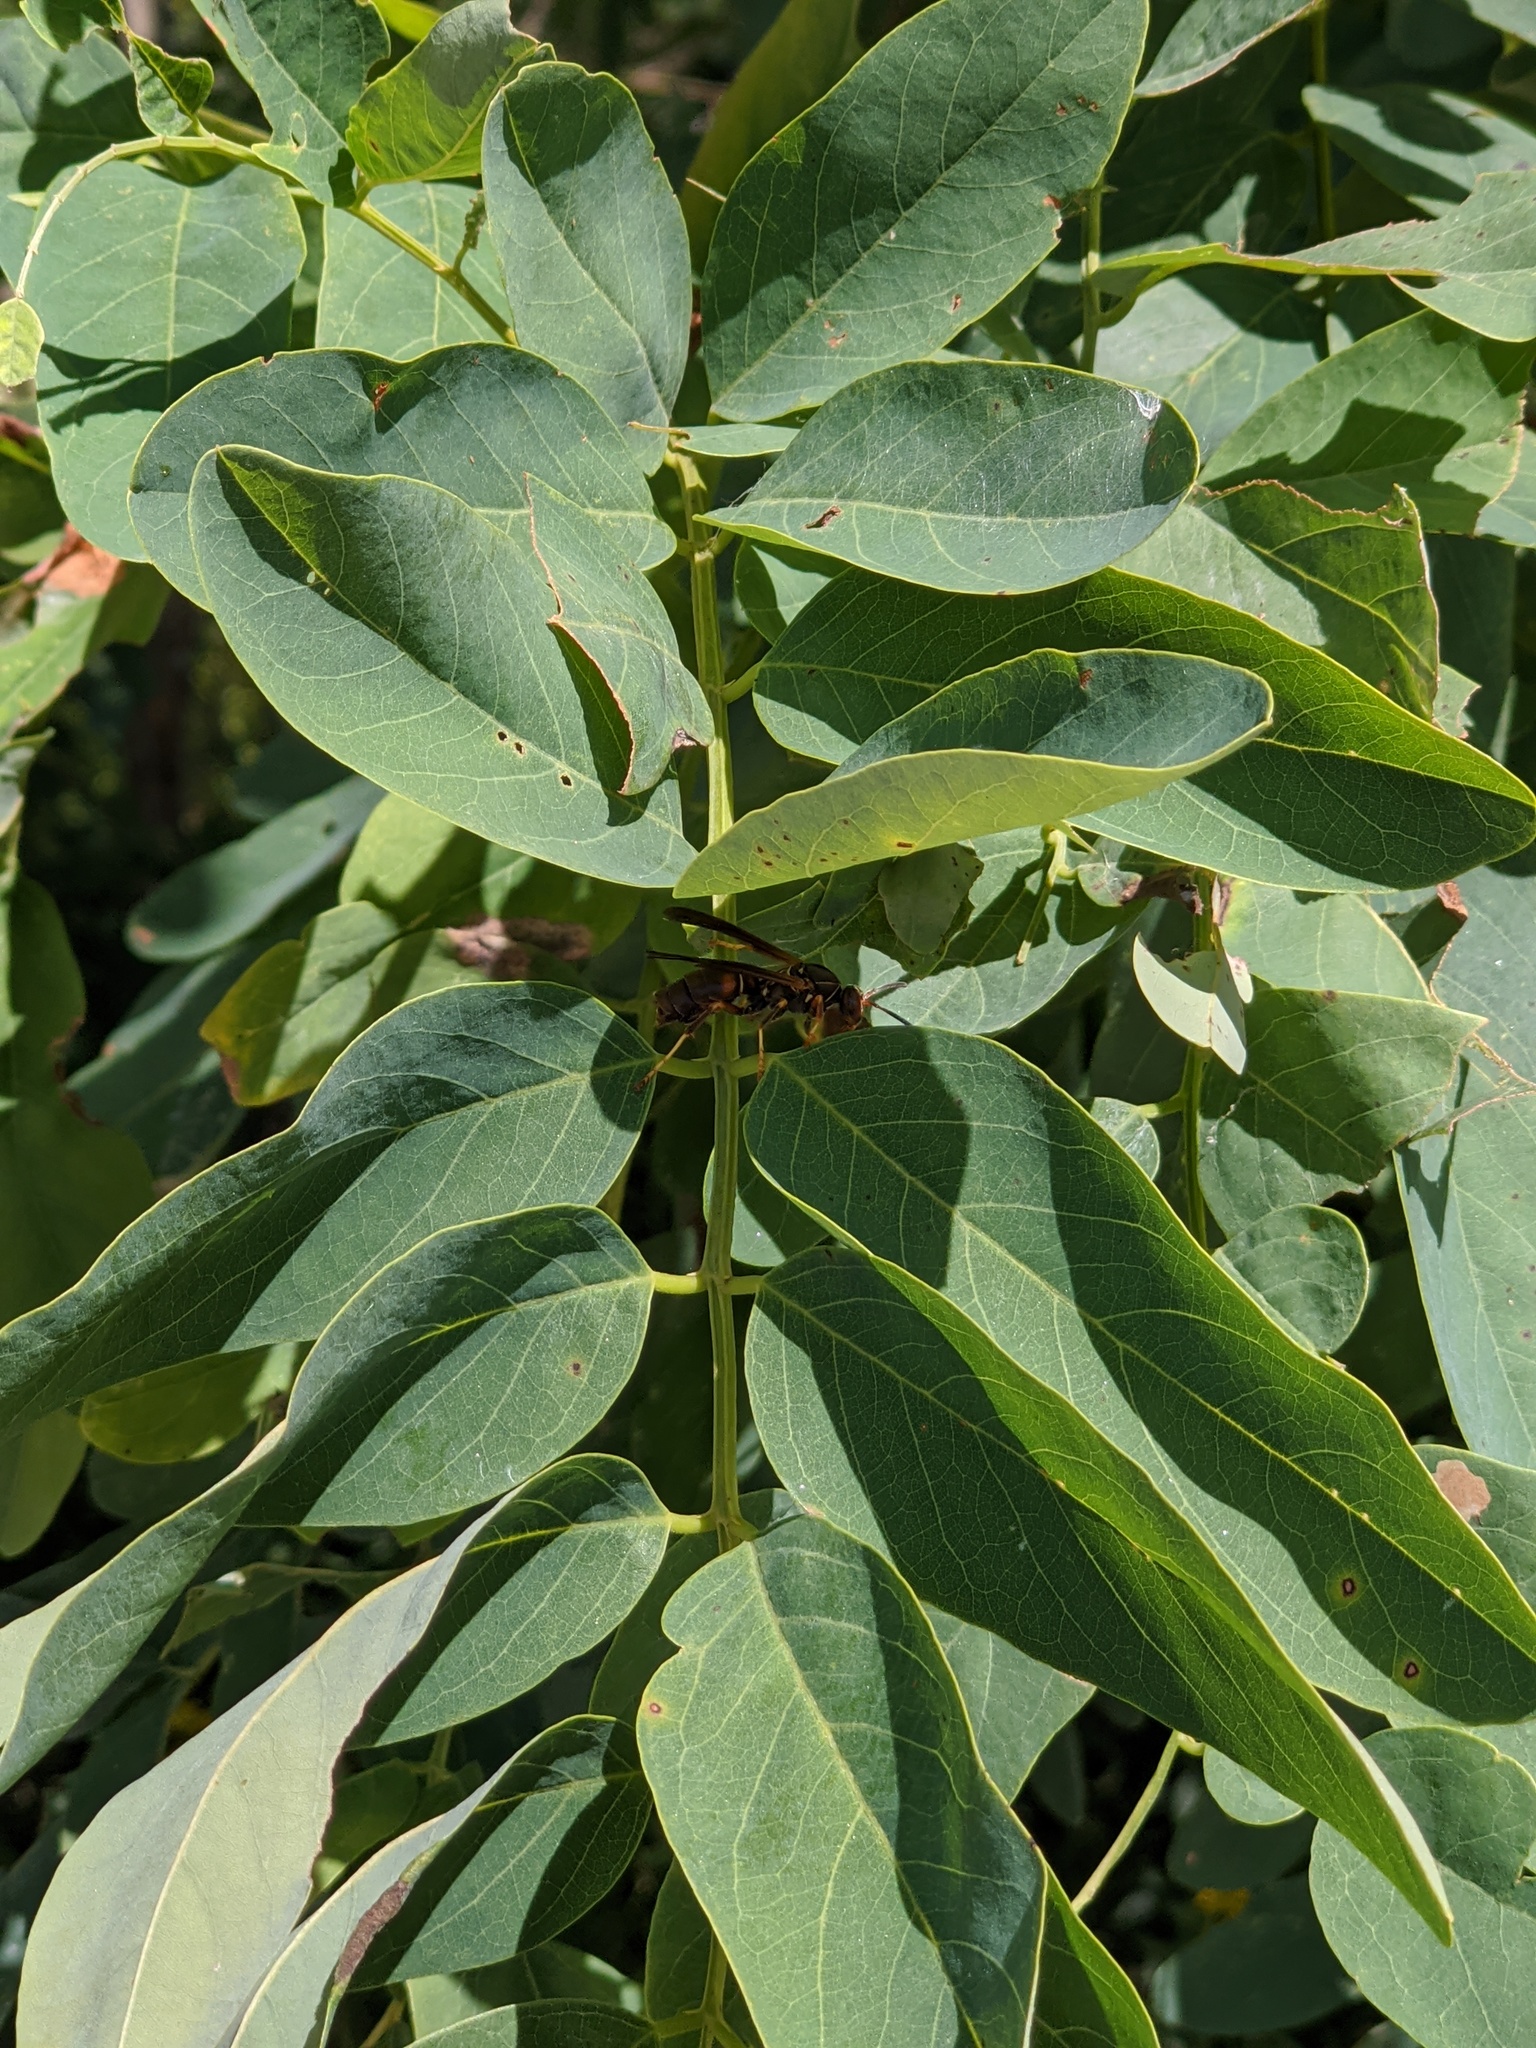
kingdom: Animalia
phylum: Arthropoda
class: Insecta
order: Hymenoptera
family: Eumenidae
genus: Polistes
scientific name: Polistes fuscatus
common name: Dark paper wasp
